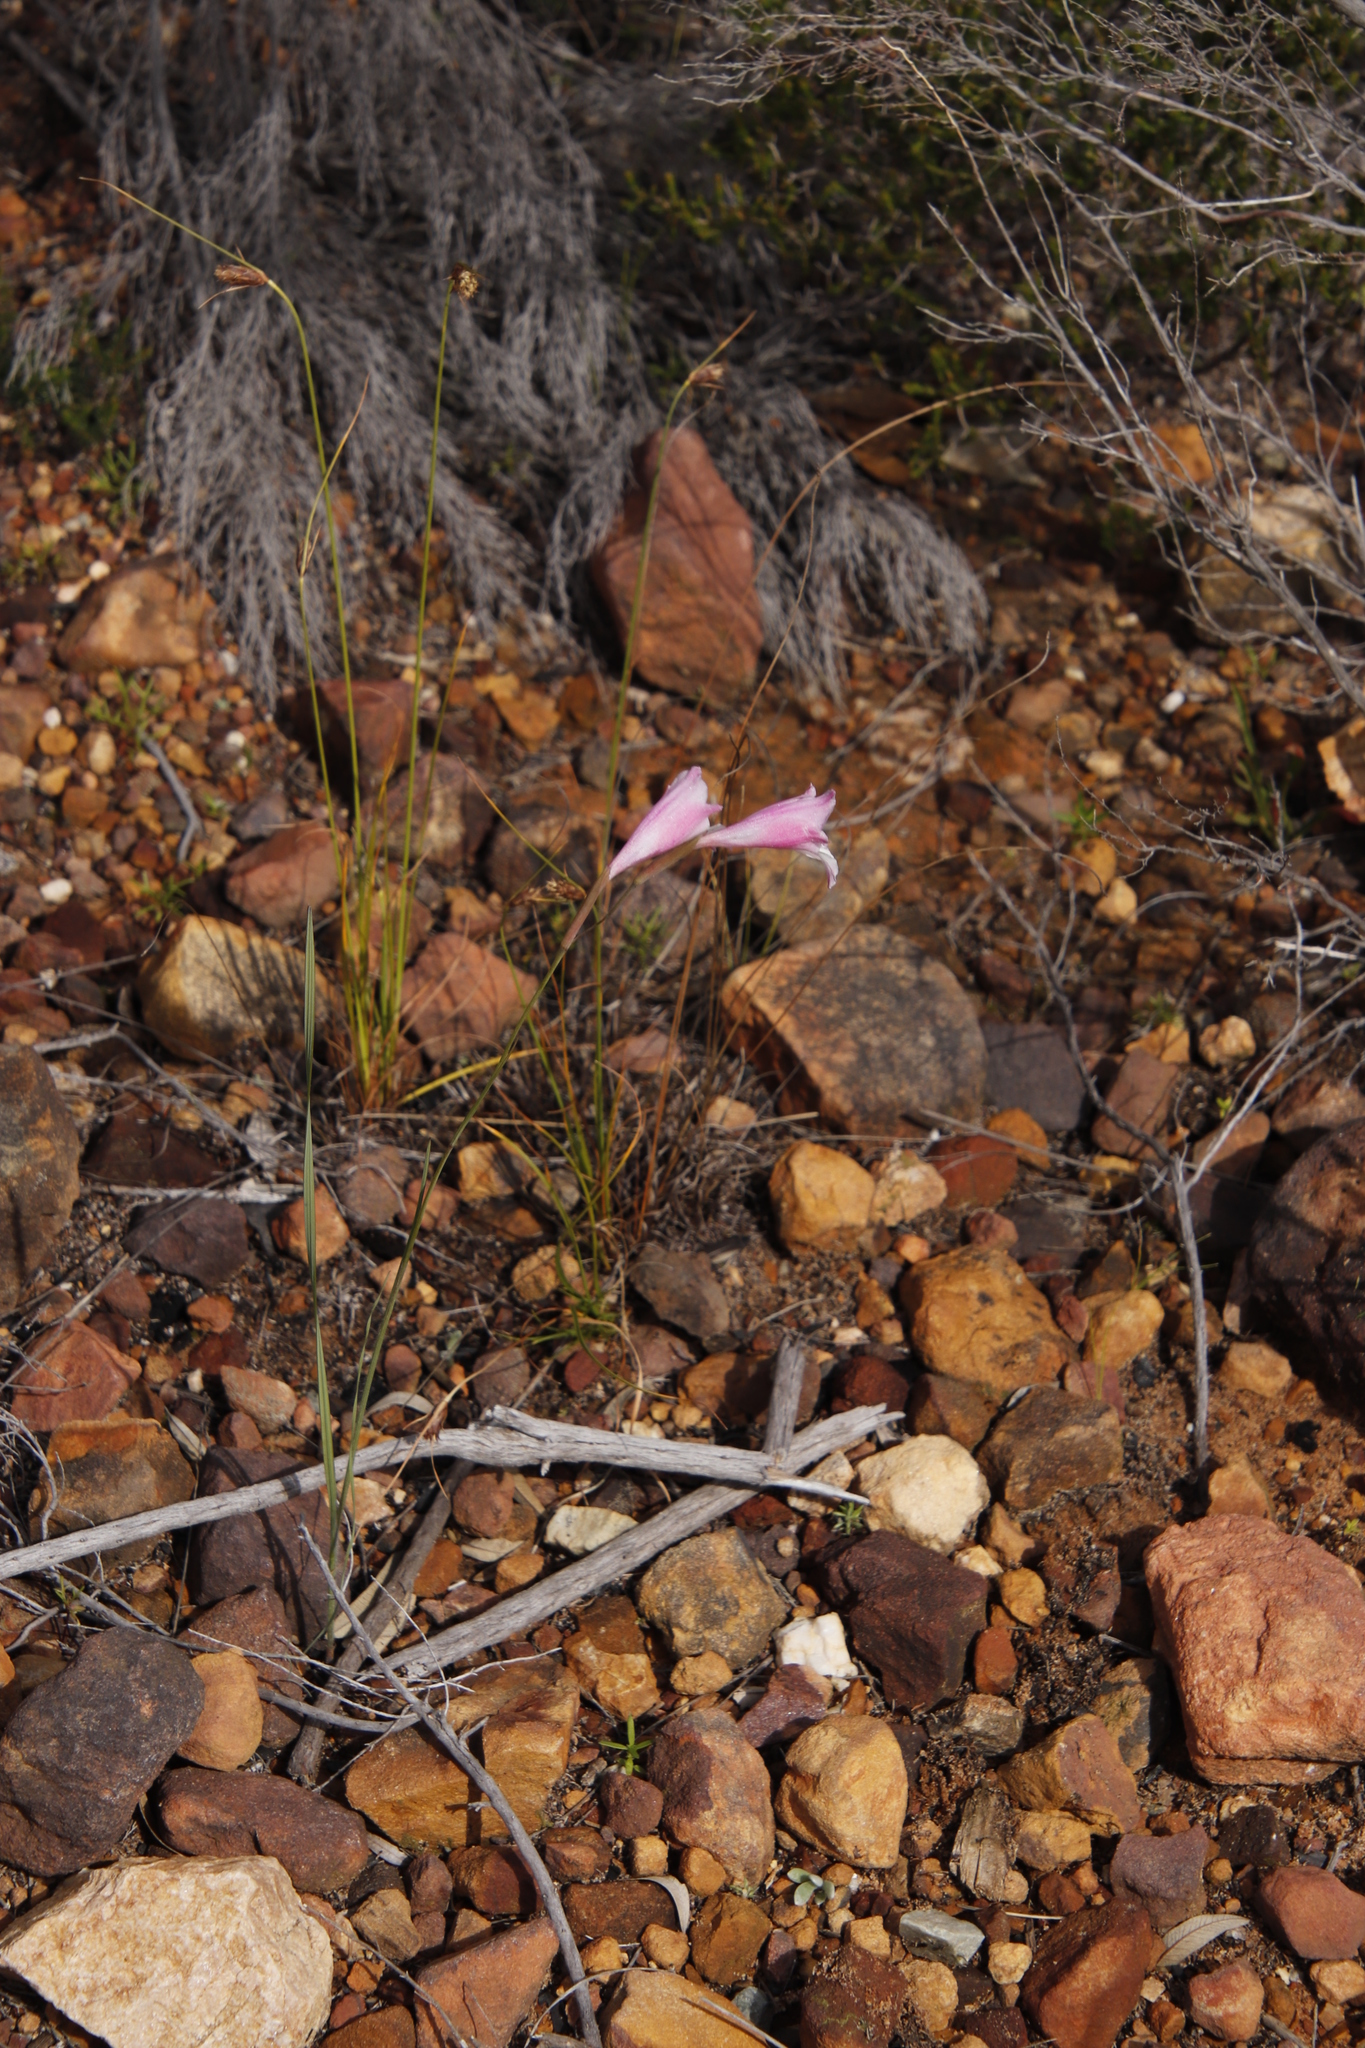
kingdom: Plantae
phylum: Tracheophyta
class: Liliopsida
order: Asparagales
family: Iridaceae
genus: Gladiolus
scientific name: Gladiolus hirsutus
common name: Small pink afrikaner
